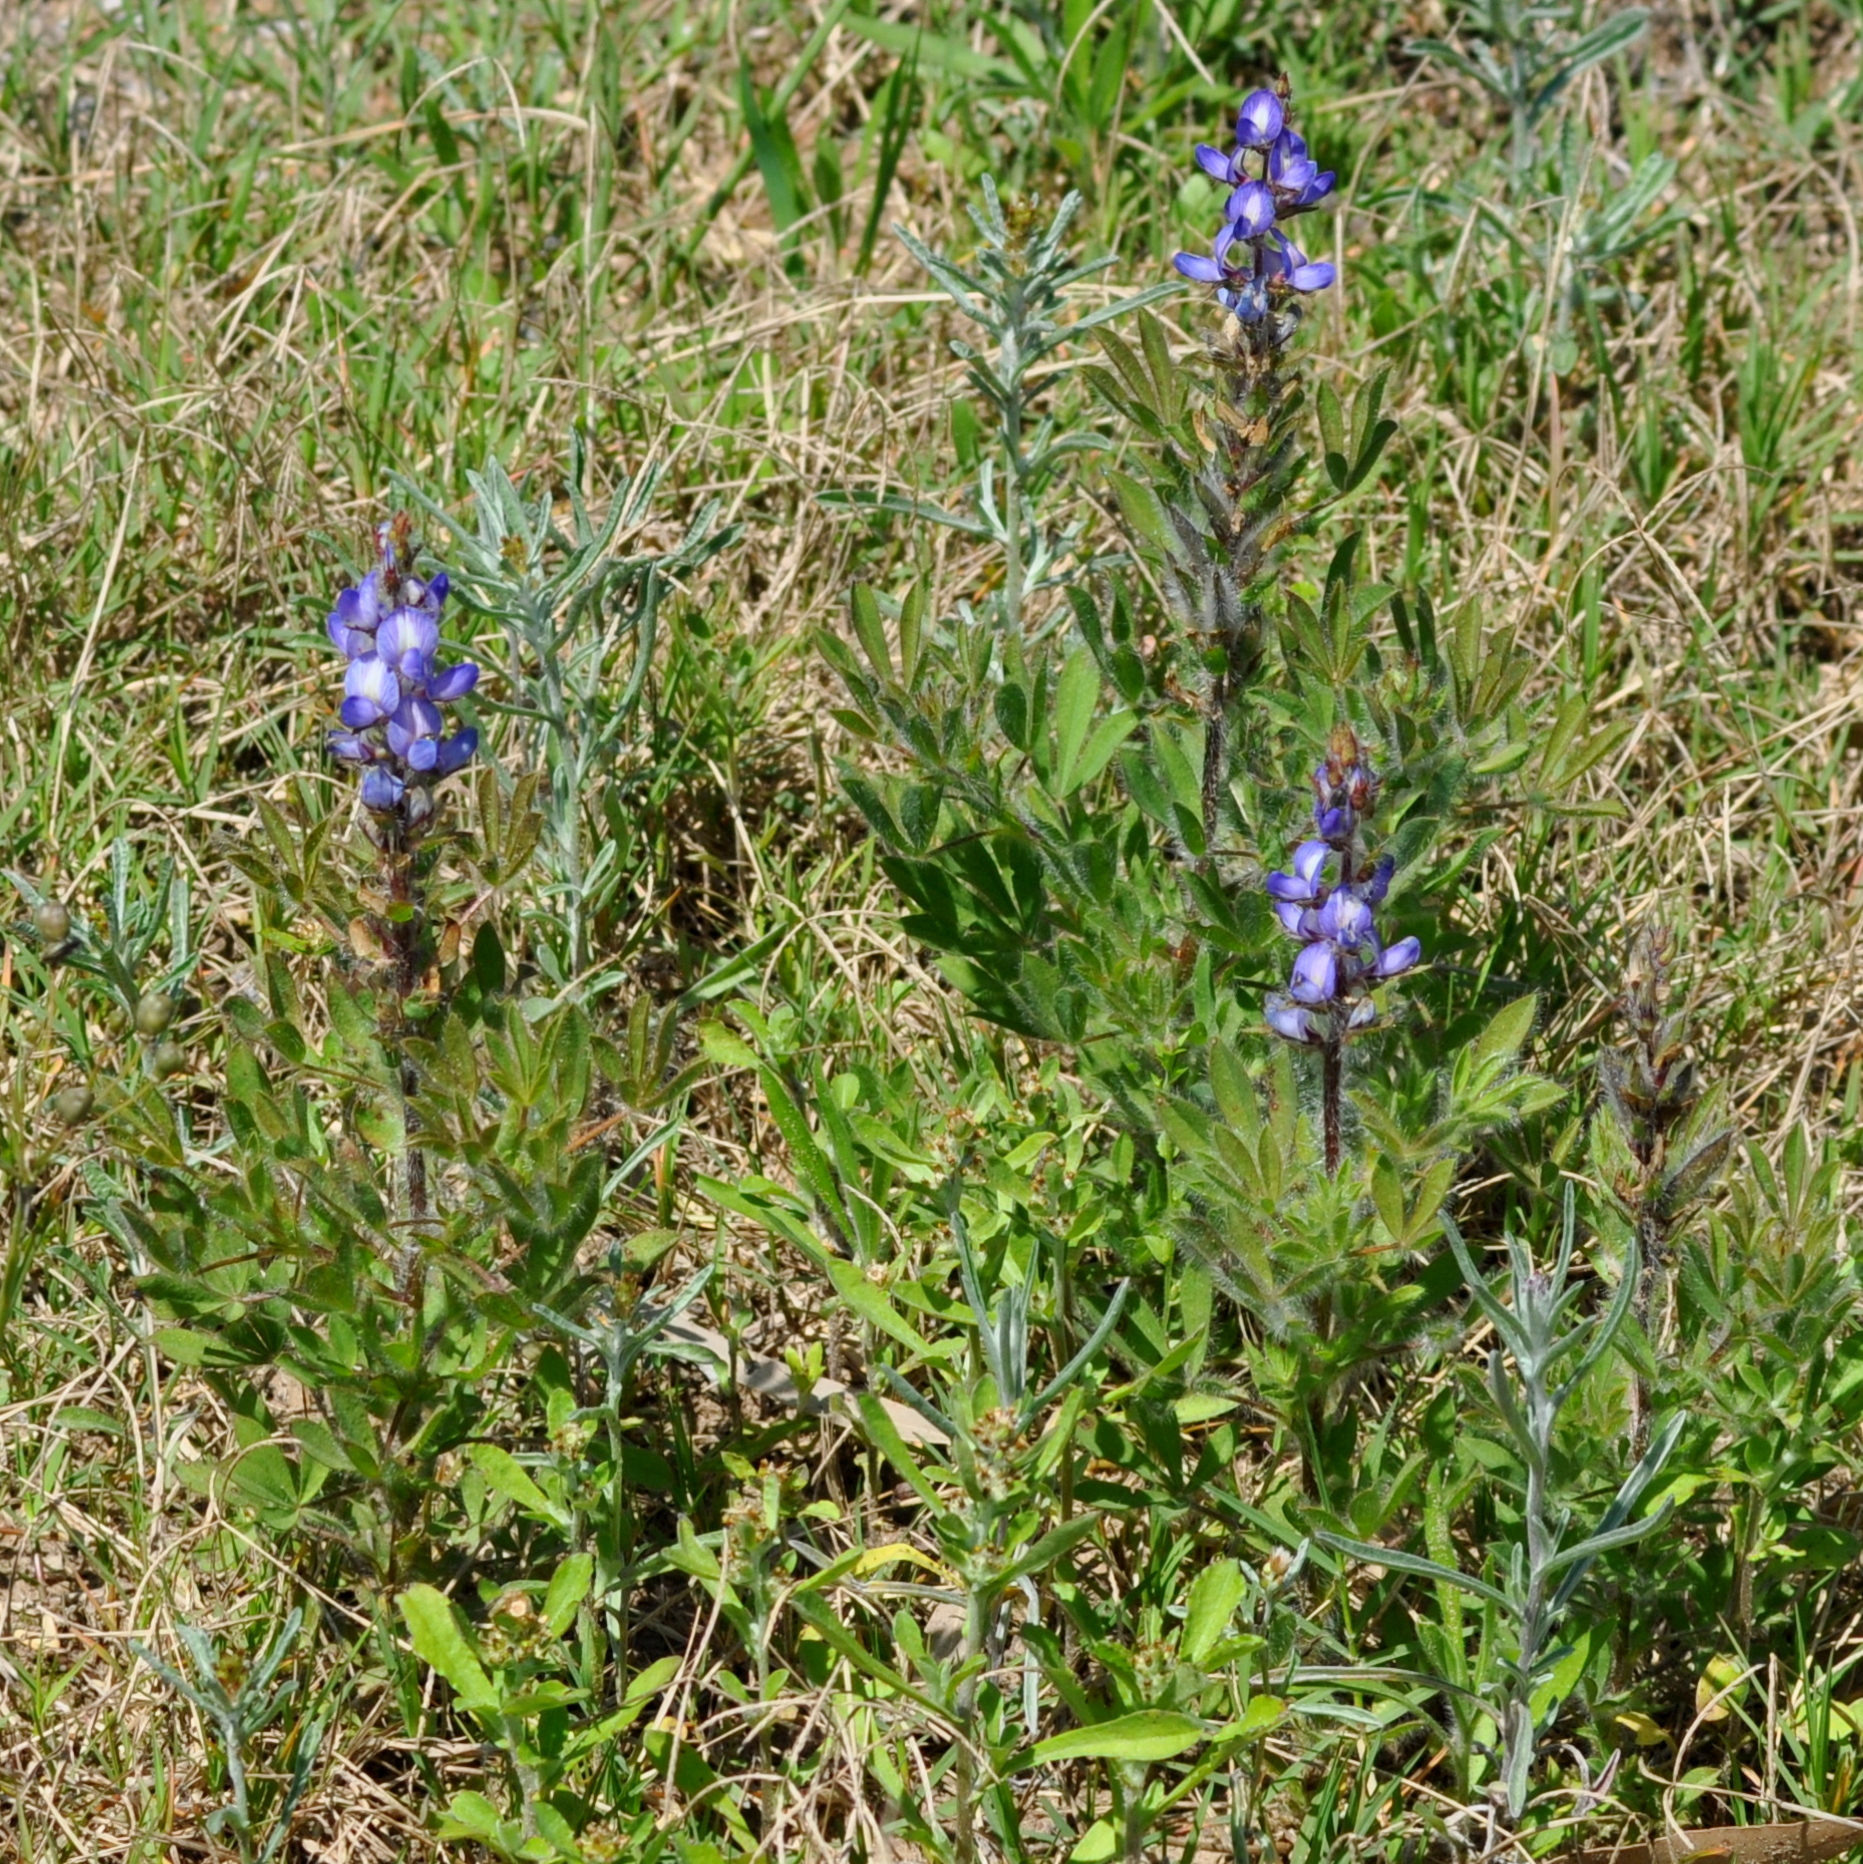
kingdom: Plantae
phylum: Tracheophyta
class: Magnoliopsida
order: Fabales
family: Fabaceae
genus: Lupinus
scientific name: Lupinus bracteolaris
